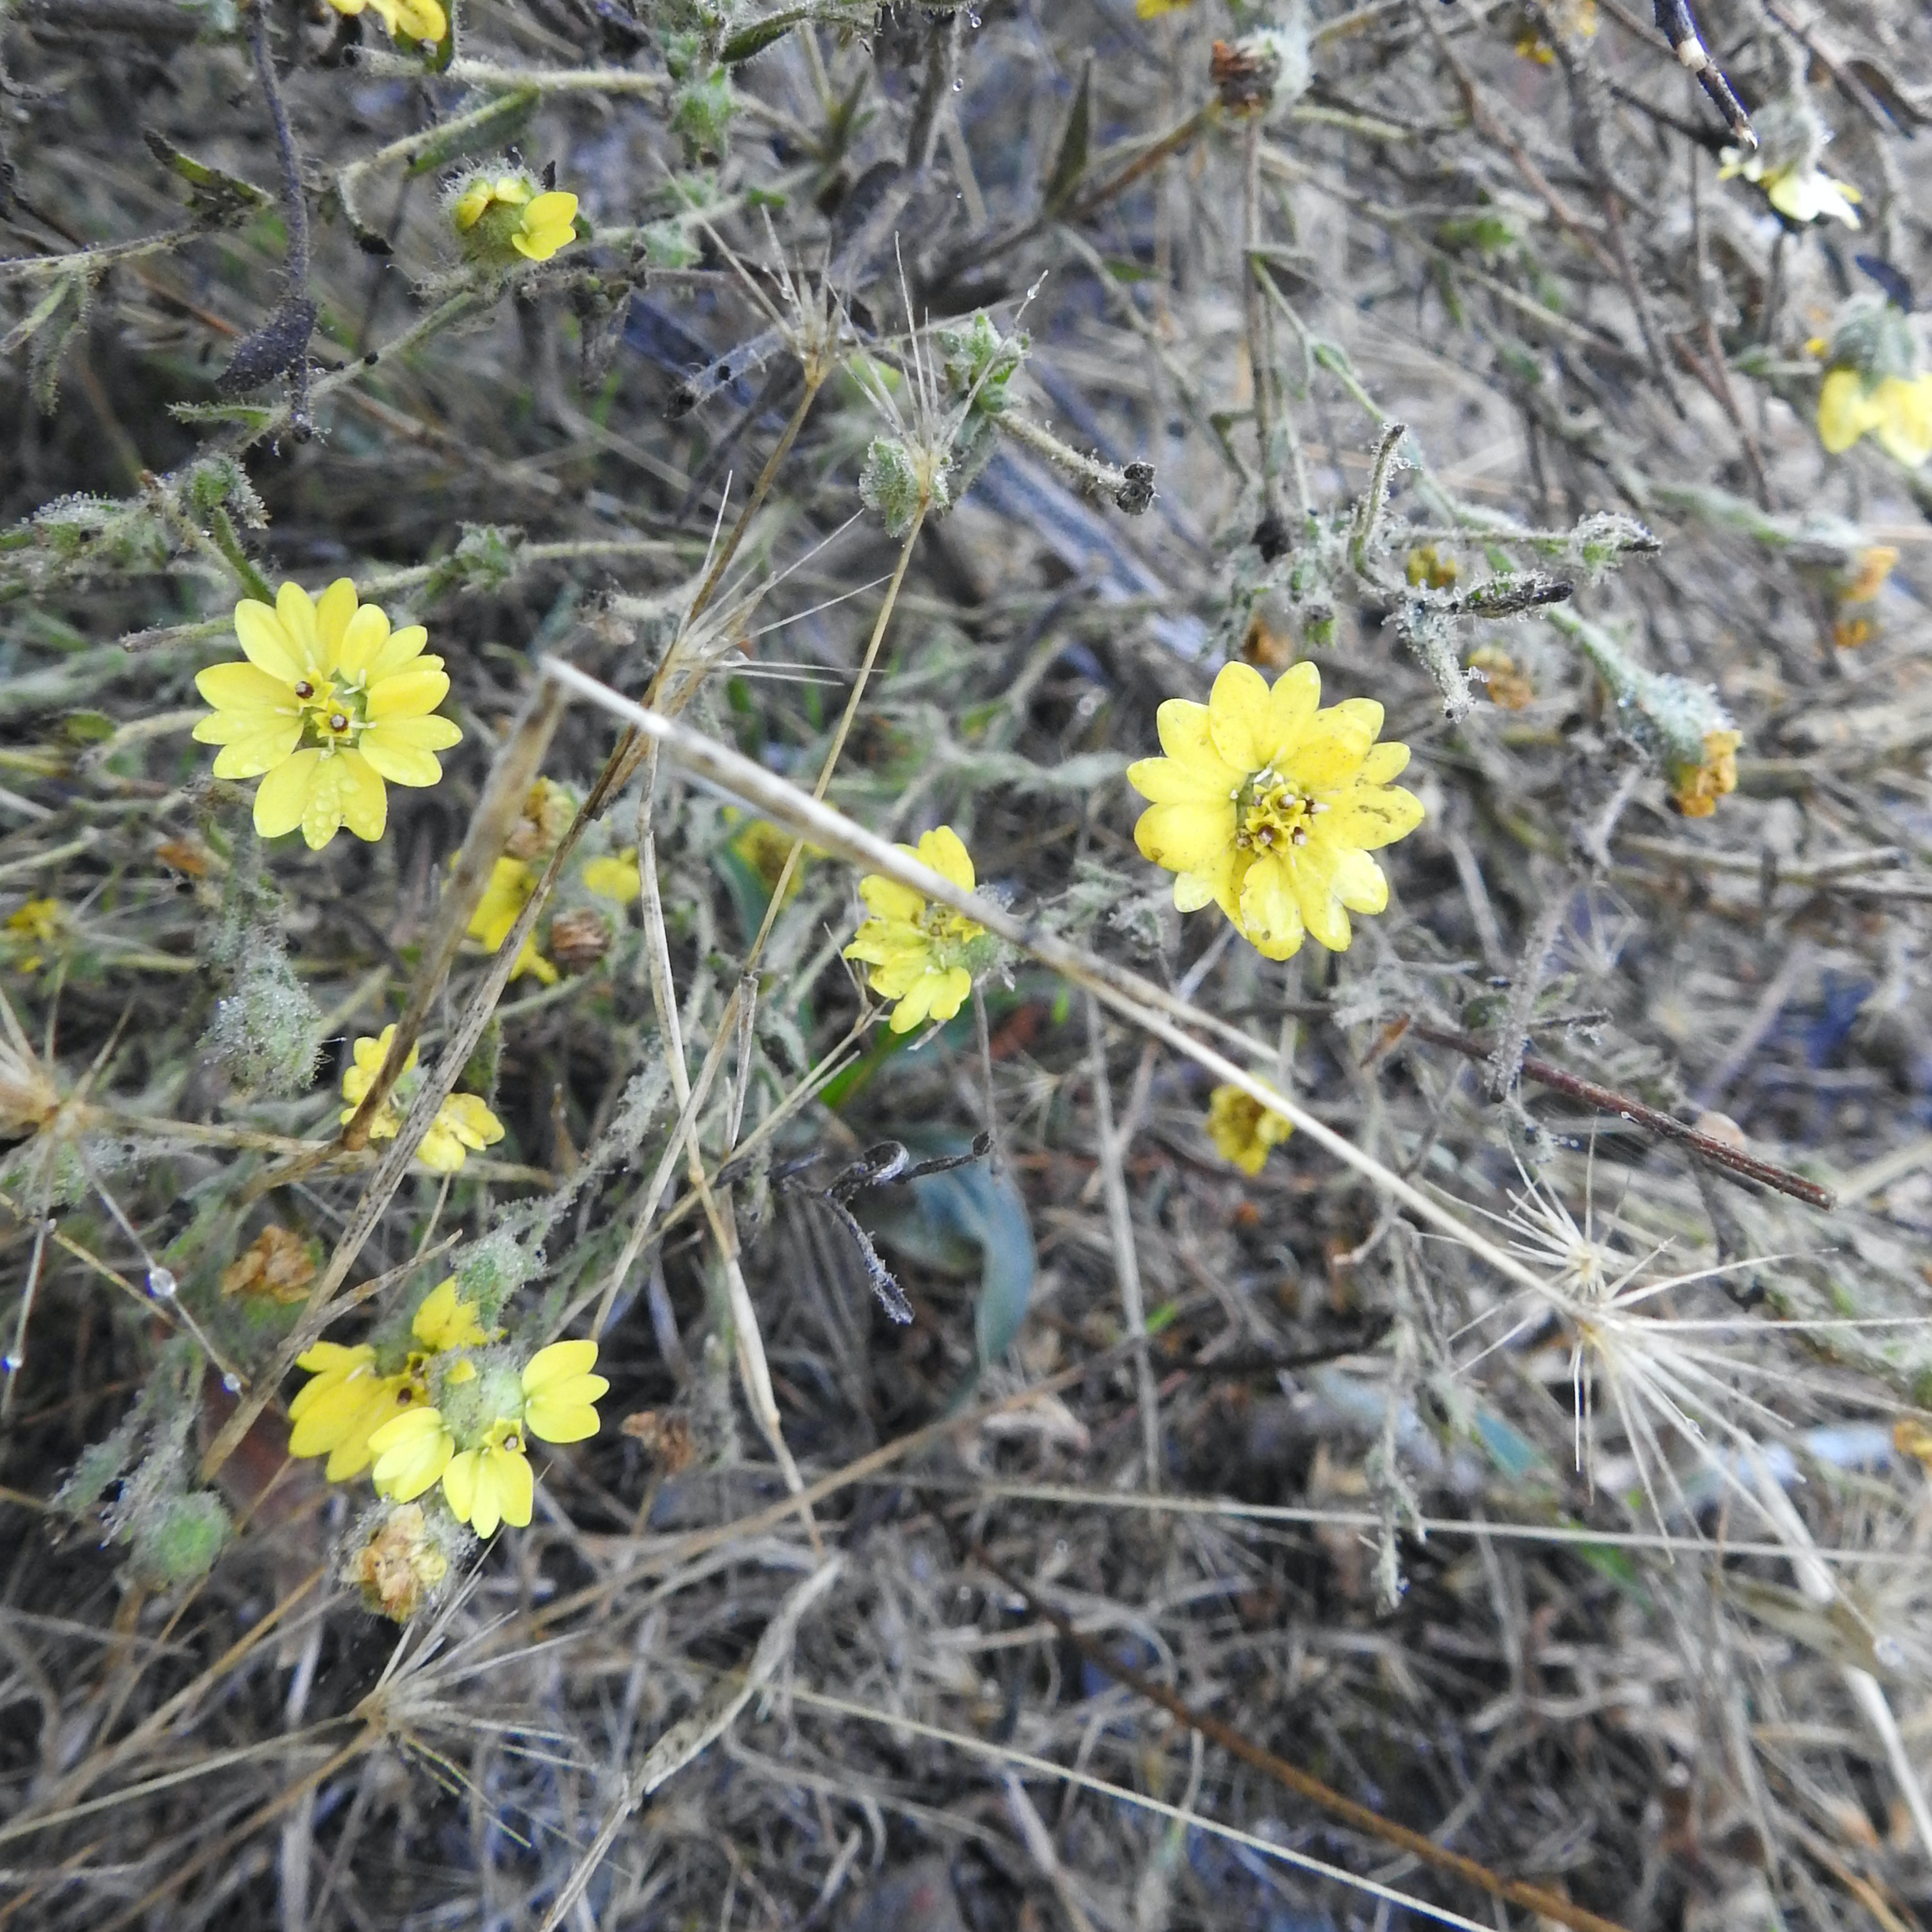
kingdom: Plantae
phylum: Tracheophyta
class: Magnoliopsida
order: Asterales
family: Asteraceae
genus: Hemizonia
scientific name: Hemizonia congesta
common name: Hayfield tarweed
